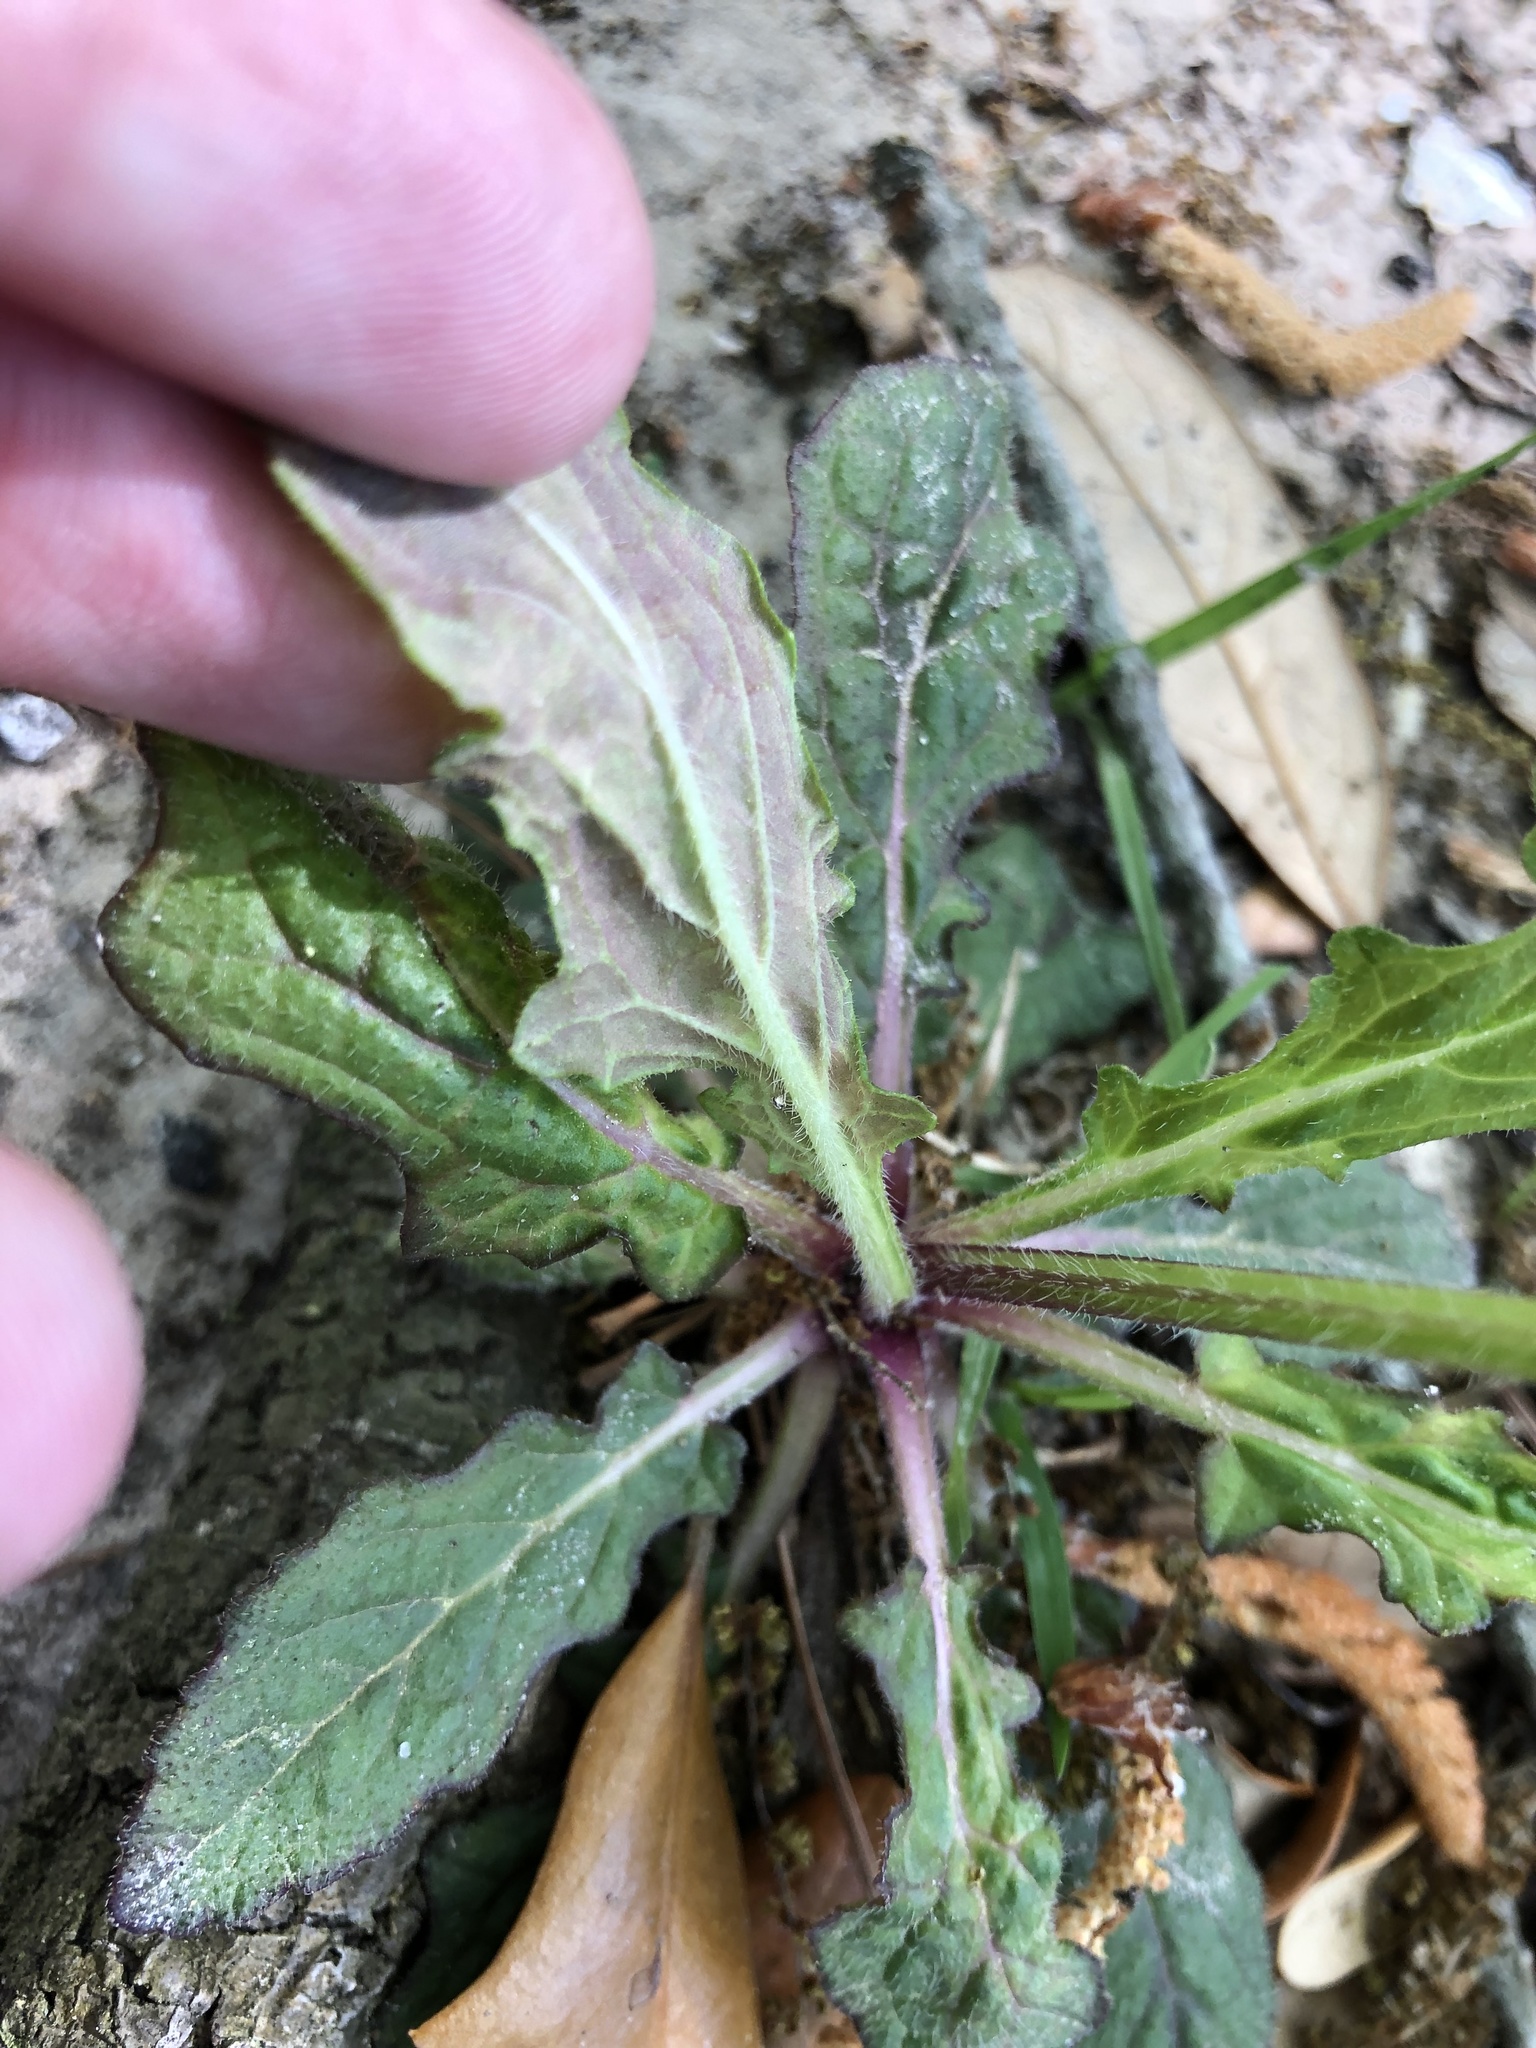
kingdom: Plantae
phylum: Tracheophyta
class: Magnoliopsida
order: Lamiales
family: Lamiaceae
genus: Salvia
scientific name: Salvia lyrata
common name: Cancerweed
